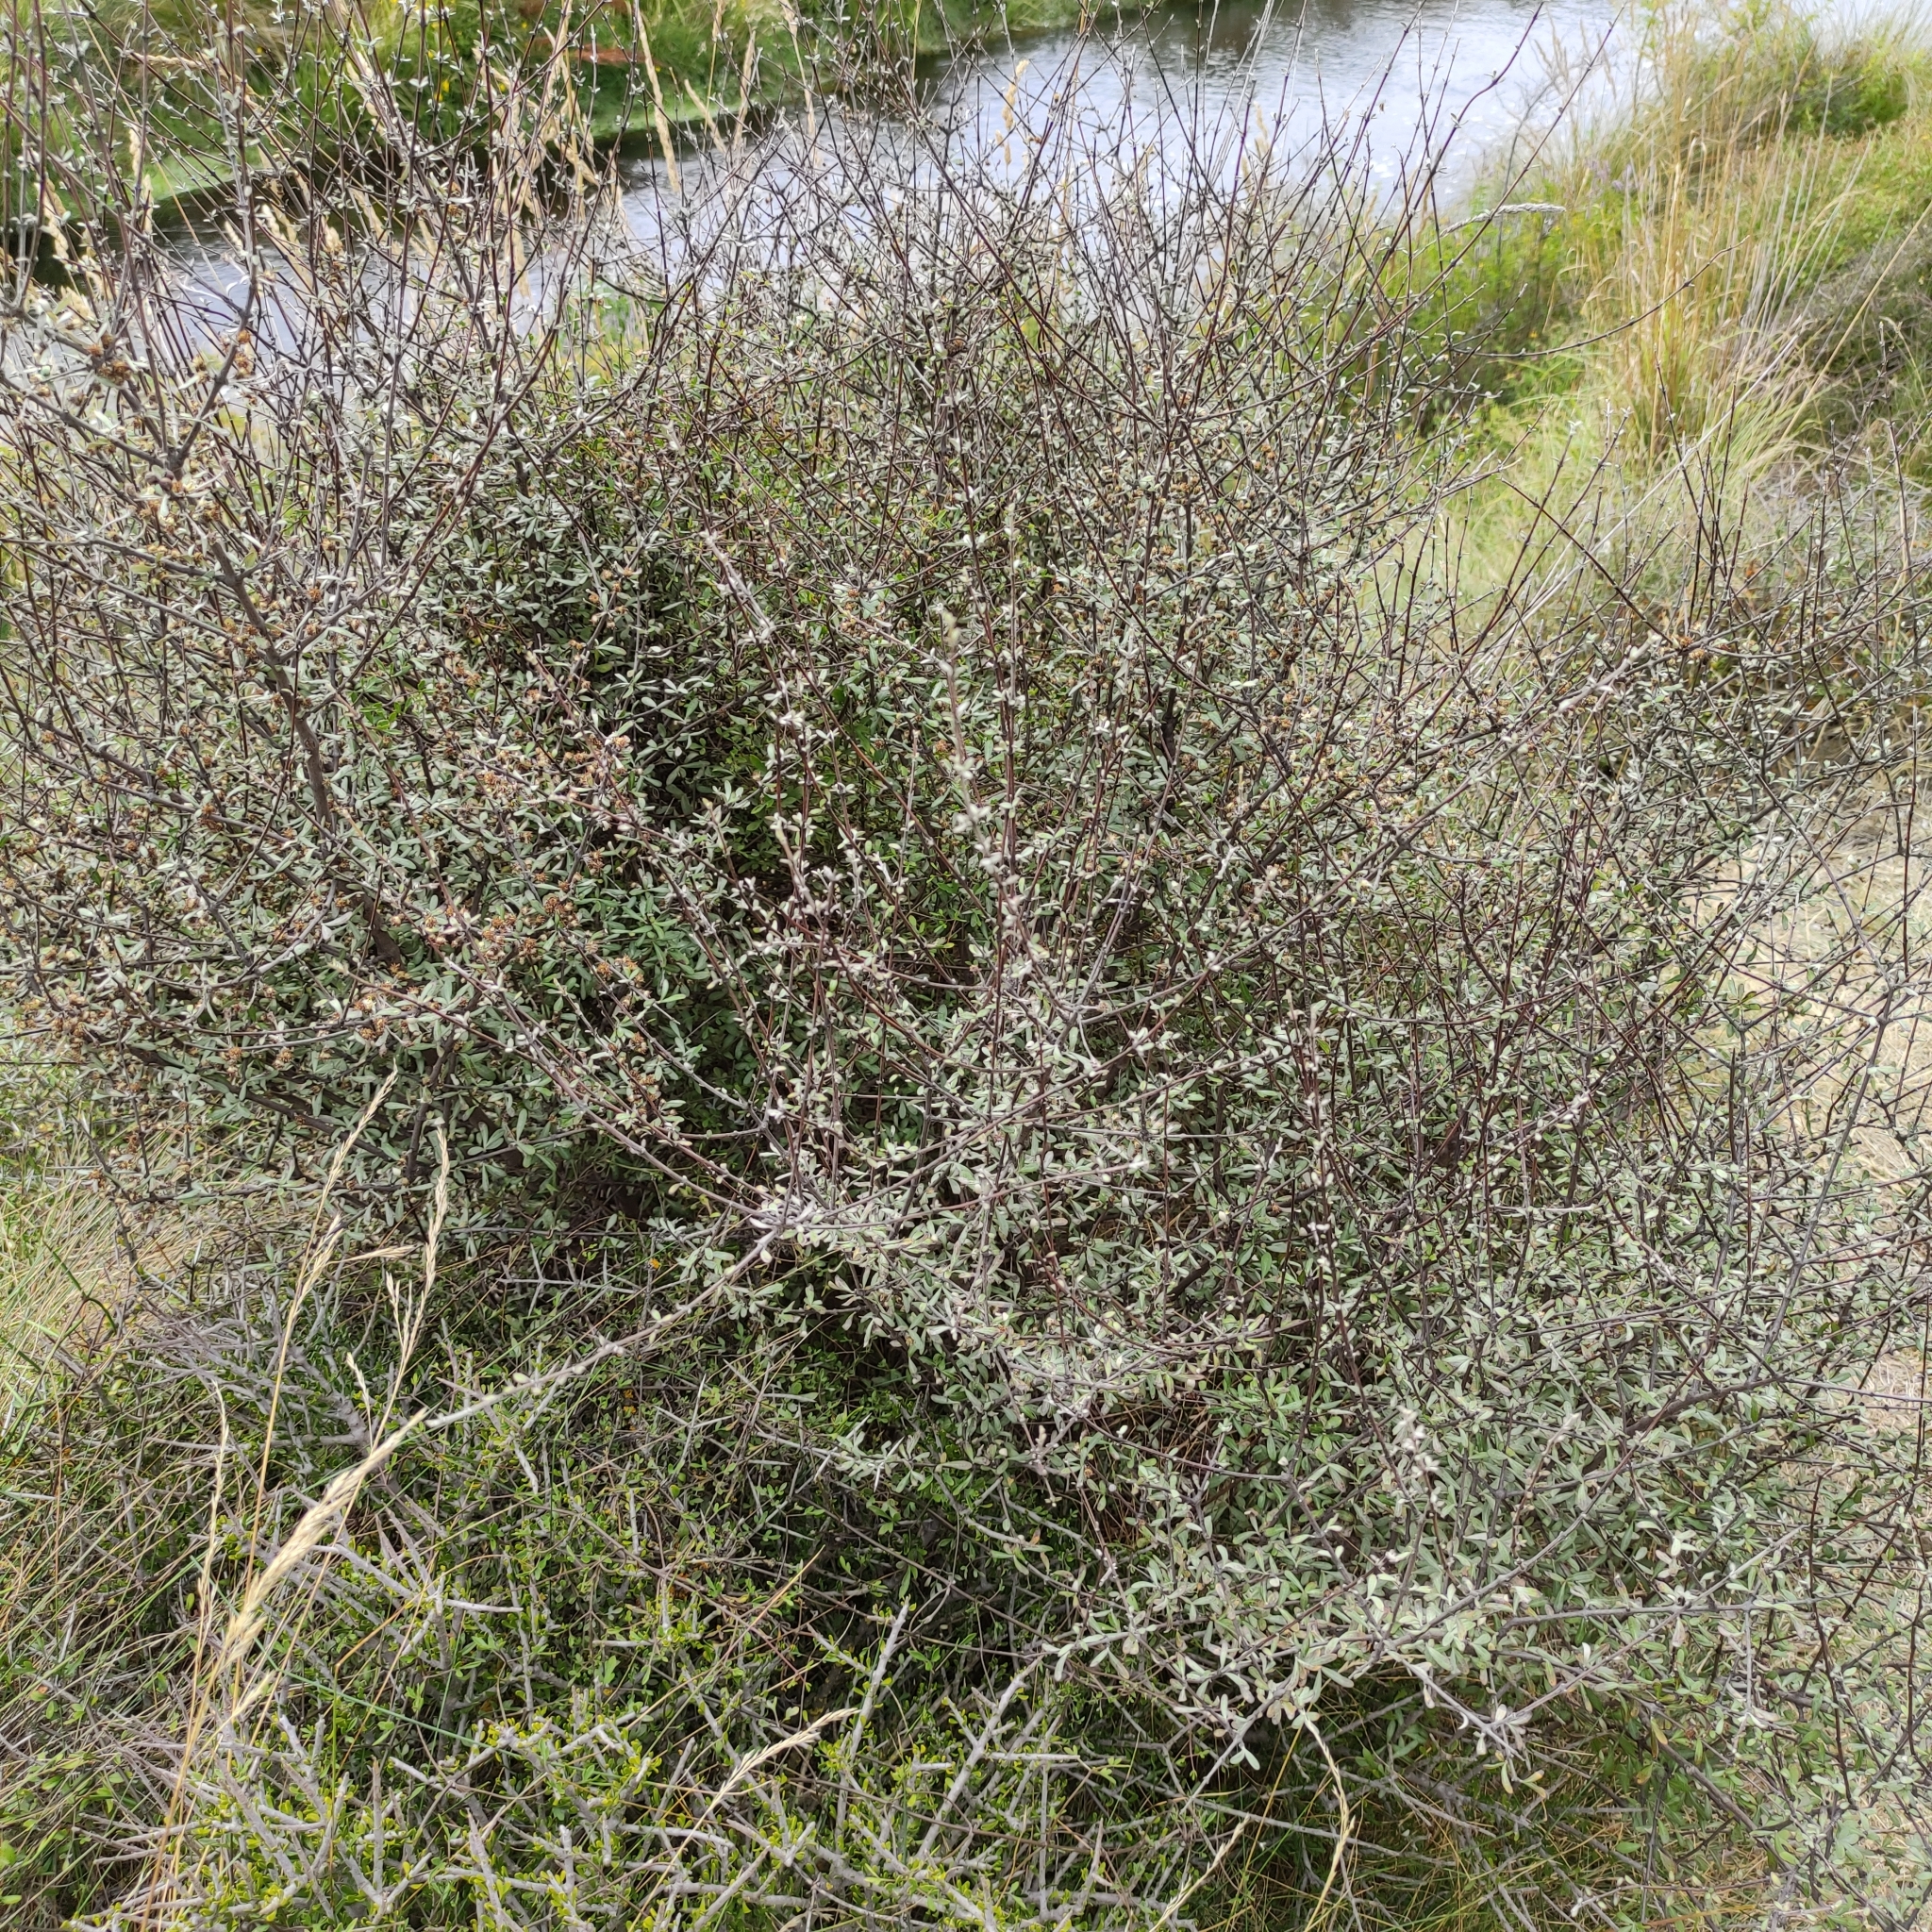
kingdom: Plantae
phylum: Tracheophyta
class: Magnoliopsida
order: Asterales
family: Asteraceae
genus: Olearia
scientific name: Olearia odorata
